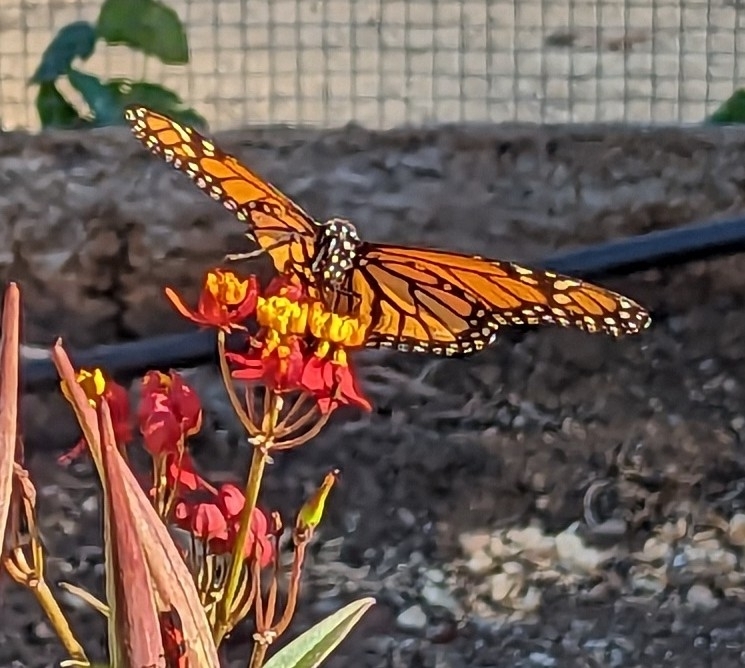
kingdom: Animalia
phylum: Arthropoda
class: Insecta
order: Lepidoptera
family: Nymphalidae
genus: Danaus
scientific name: Danaus plexippus
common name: Monarch
